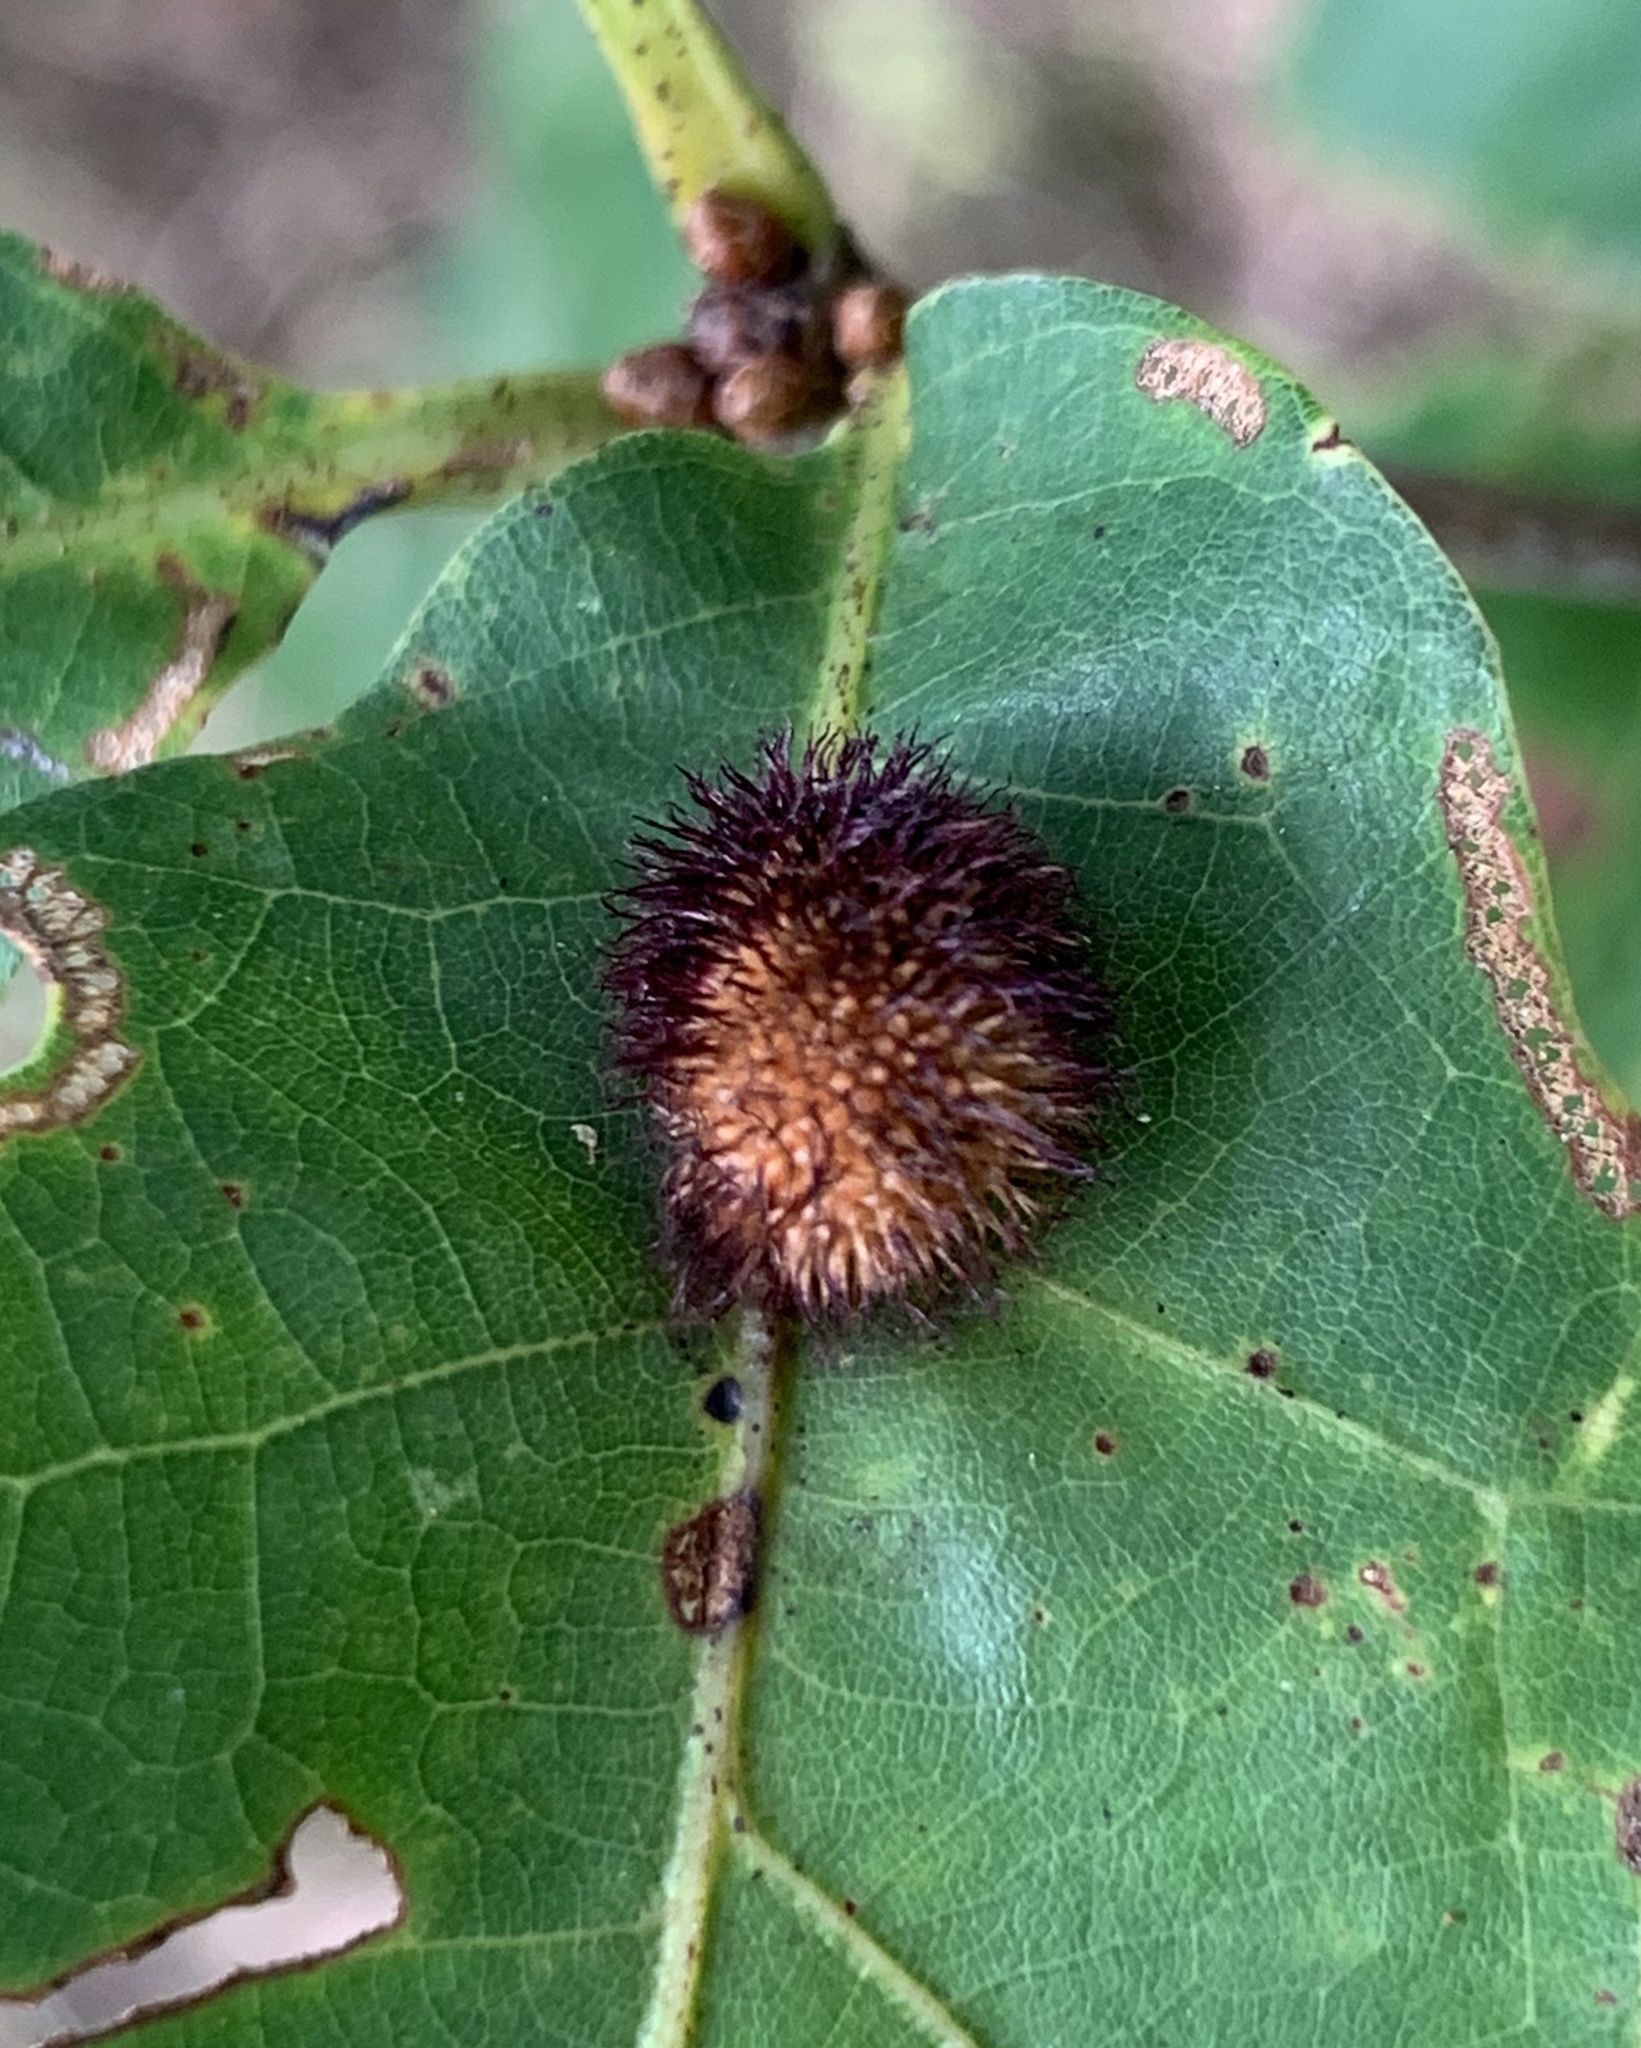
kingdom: Animalia
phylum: Arthropoda
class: Insecta
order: Hymenoptera
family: Cynipidae
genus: Acraspis
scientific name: Acraspis erinacei
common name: Hedgehog gall wasp
